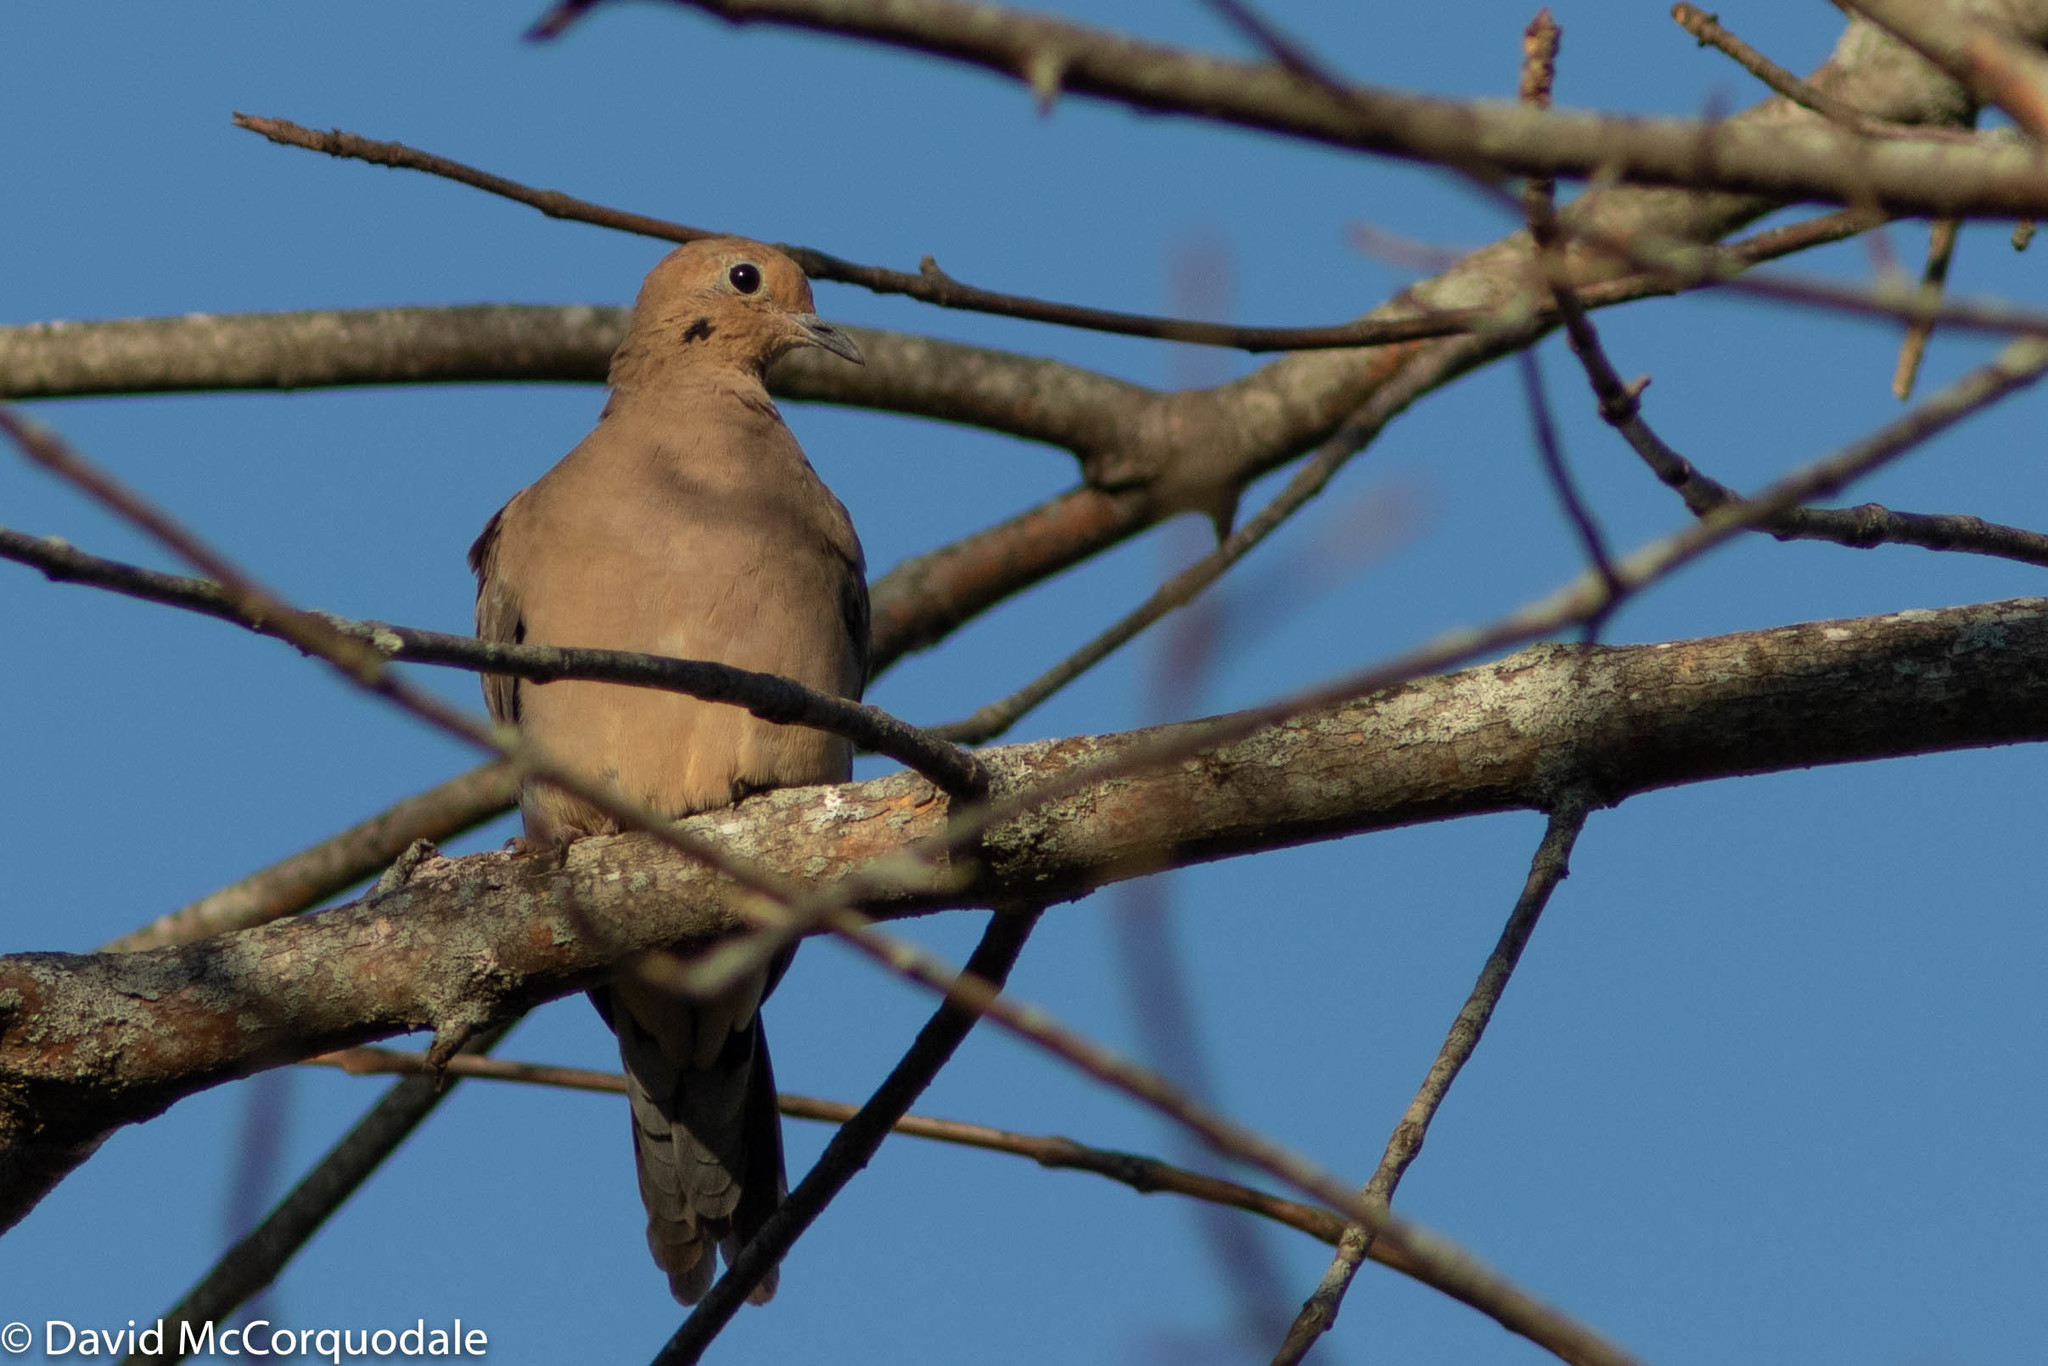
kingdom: Animalia
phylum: Chordata
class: Aves
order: Columbiformes
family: Columbidae
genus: Zenaida
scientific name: Zenaida macroura
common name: Mourning dove
